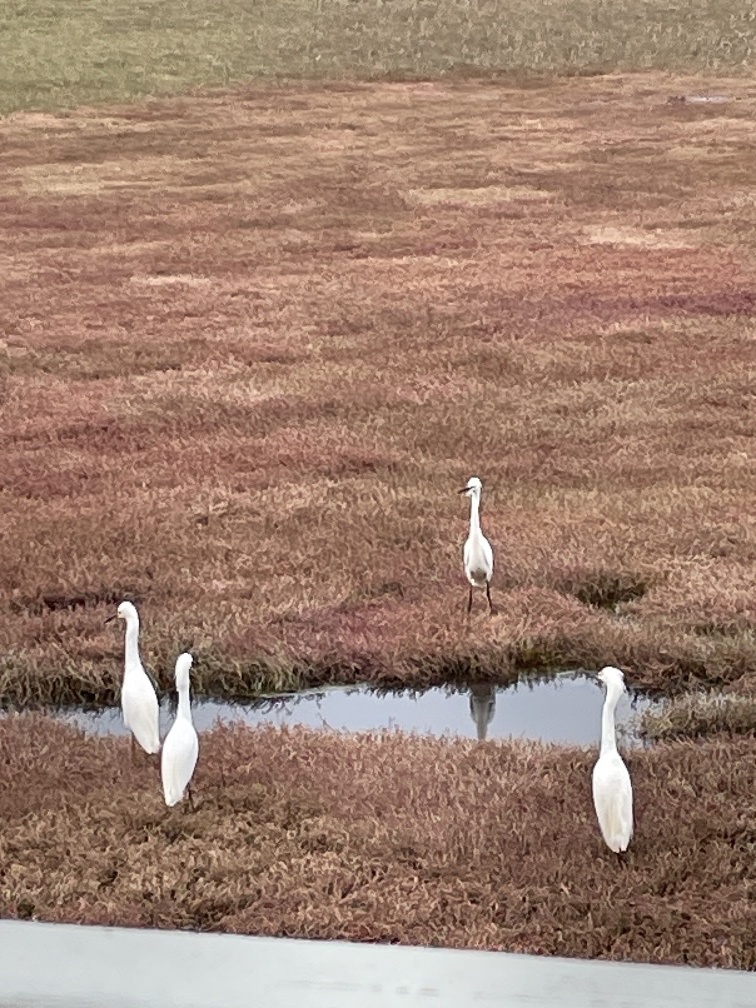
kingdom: Animalia
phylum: Chordata
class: Aves
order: Pelecaniformes
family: Ardeidae
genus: Egretta
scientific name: Egretta thula
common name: Snowy egret
